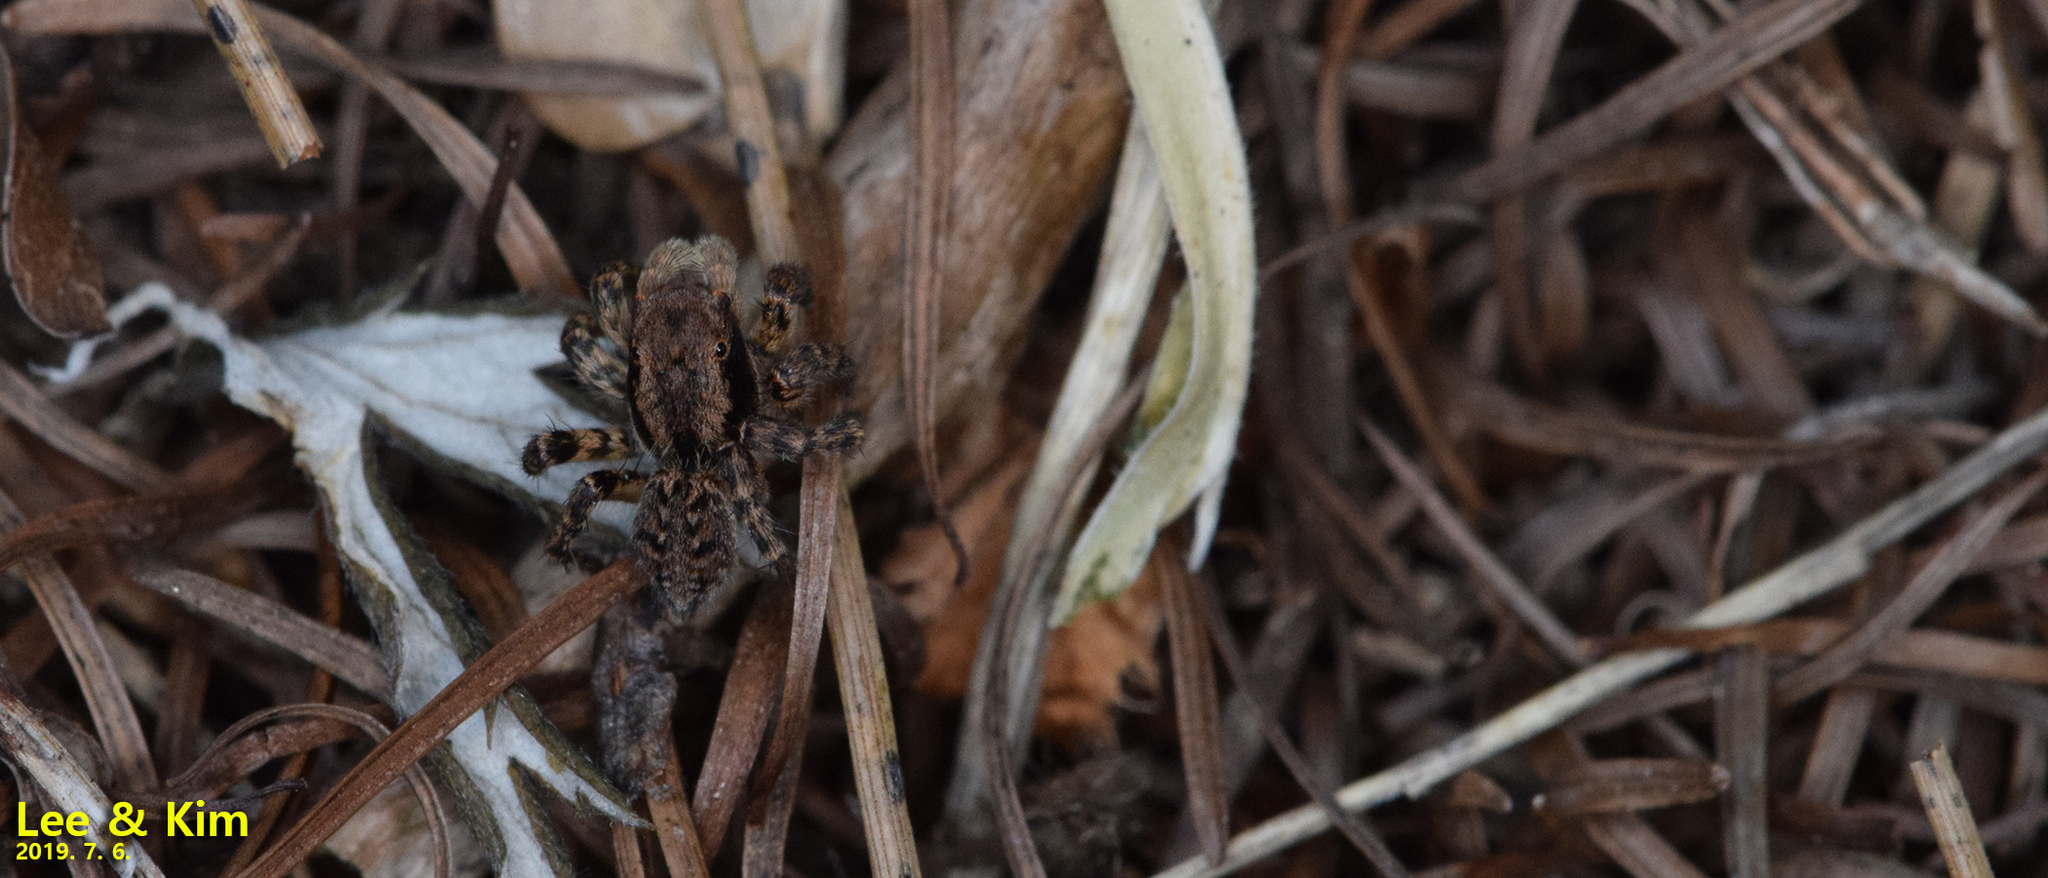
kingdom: Animalia
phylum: Arthropoda
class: Arachnida
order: Araneae
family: Salticidae
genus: Attulus
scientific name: Attulus fasciger
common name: Asiatic wall jumping spider
